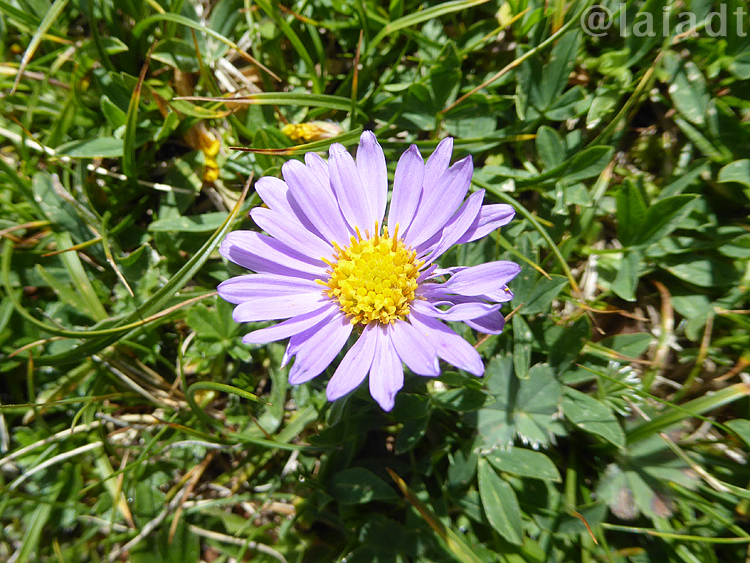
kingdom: Plantae
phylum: Tracheophyta
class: Magnoliopsida
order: Asterales
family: Asteraceae
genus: Aster
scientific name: Aster alpinus
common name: Alpine aster
